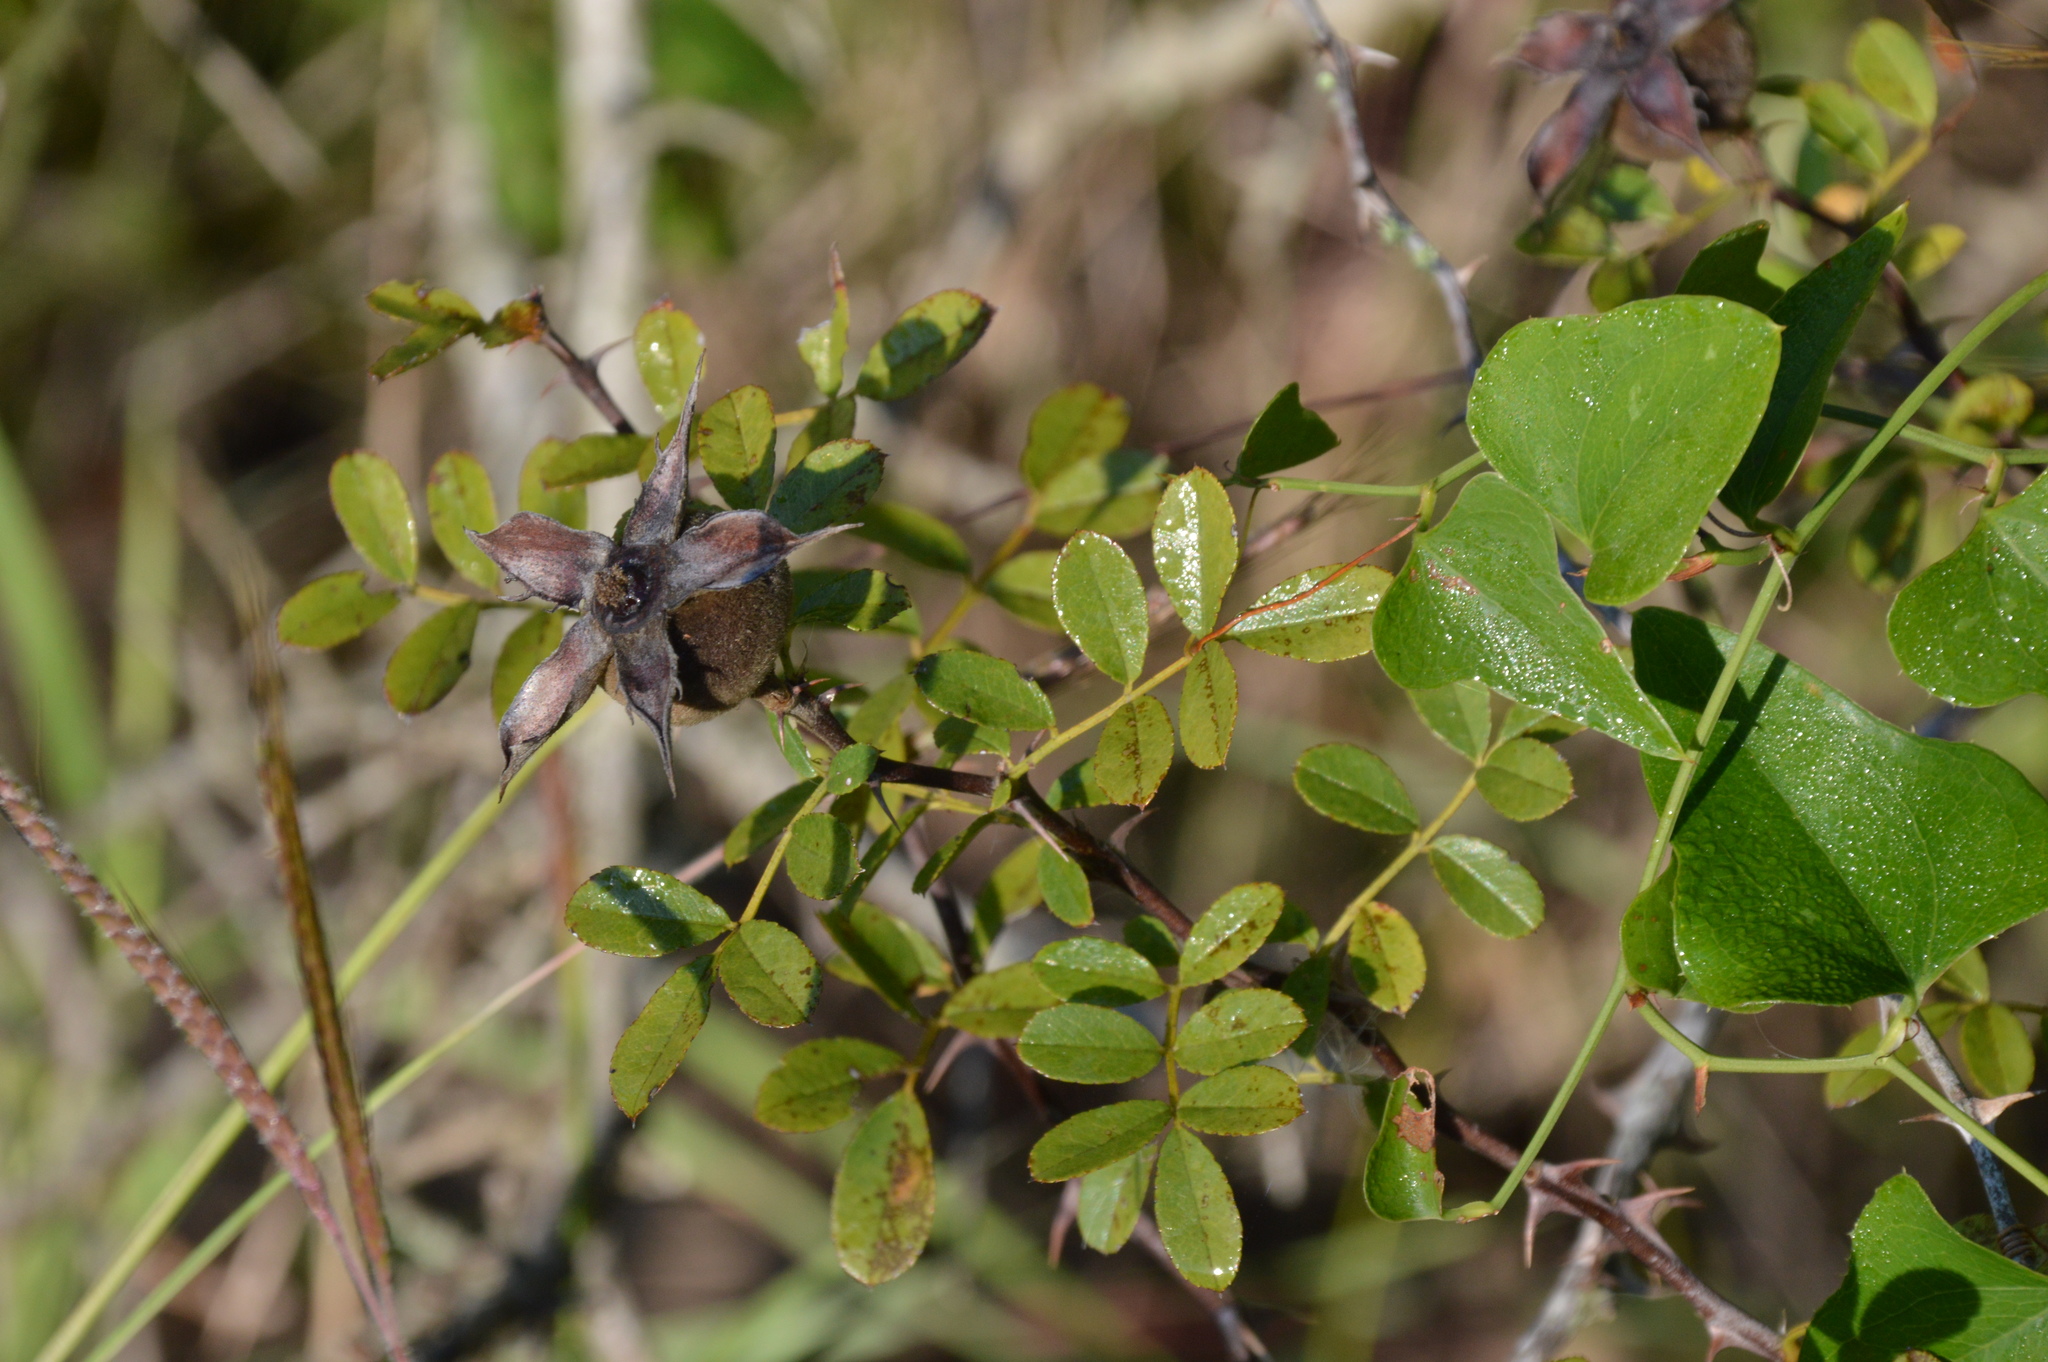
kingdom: Plantae
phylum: Tracheophyta
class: Magnoliopsida
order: Rosales
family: Rosaceae
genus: Rosa
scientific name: Rosa bracteata
